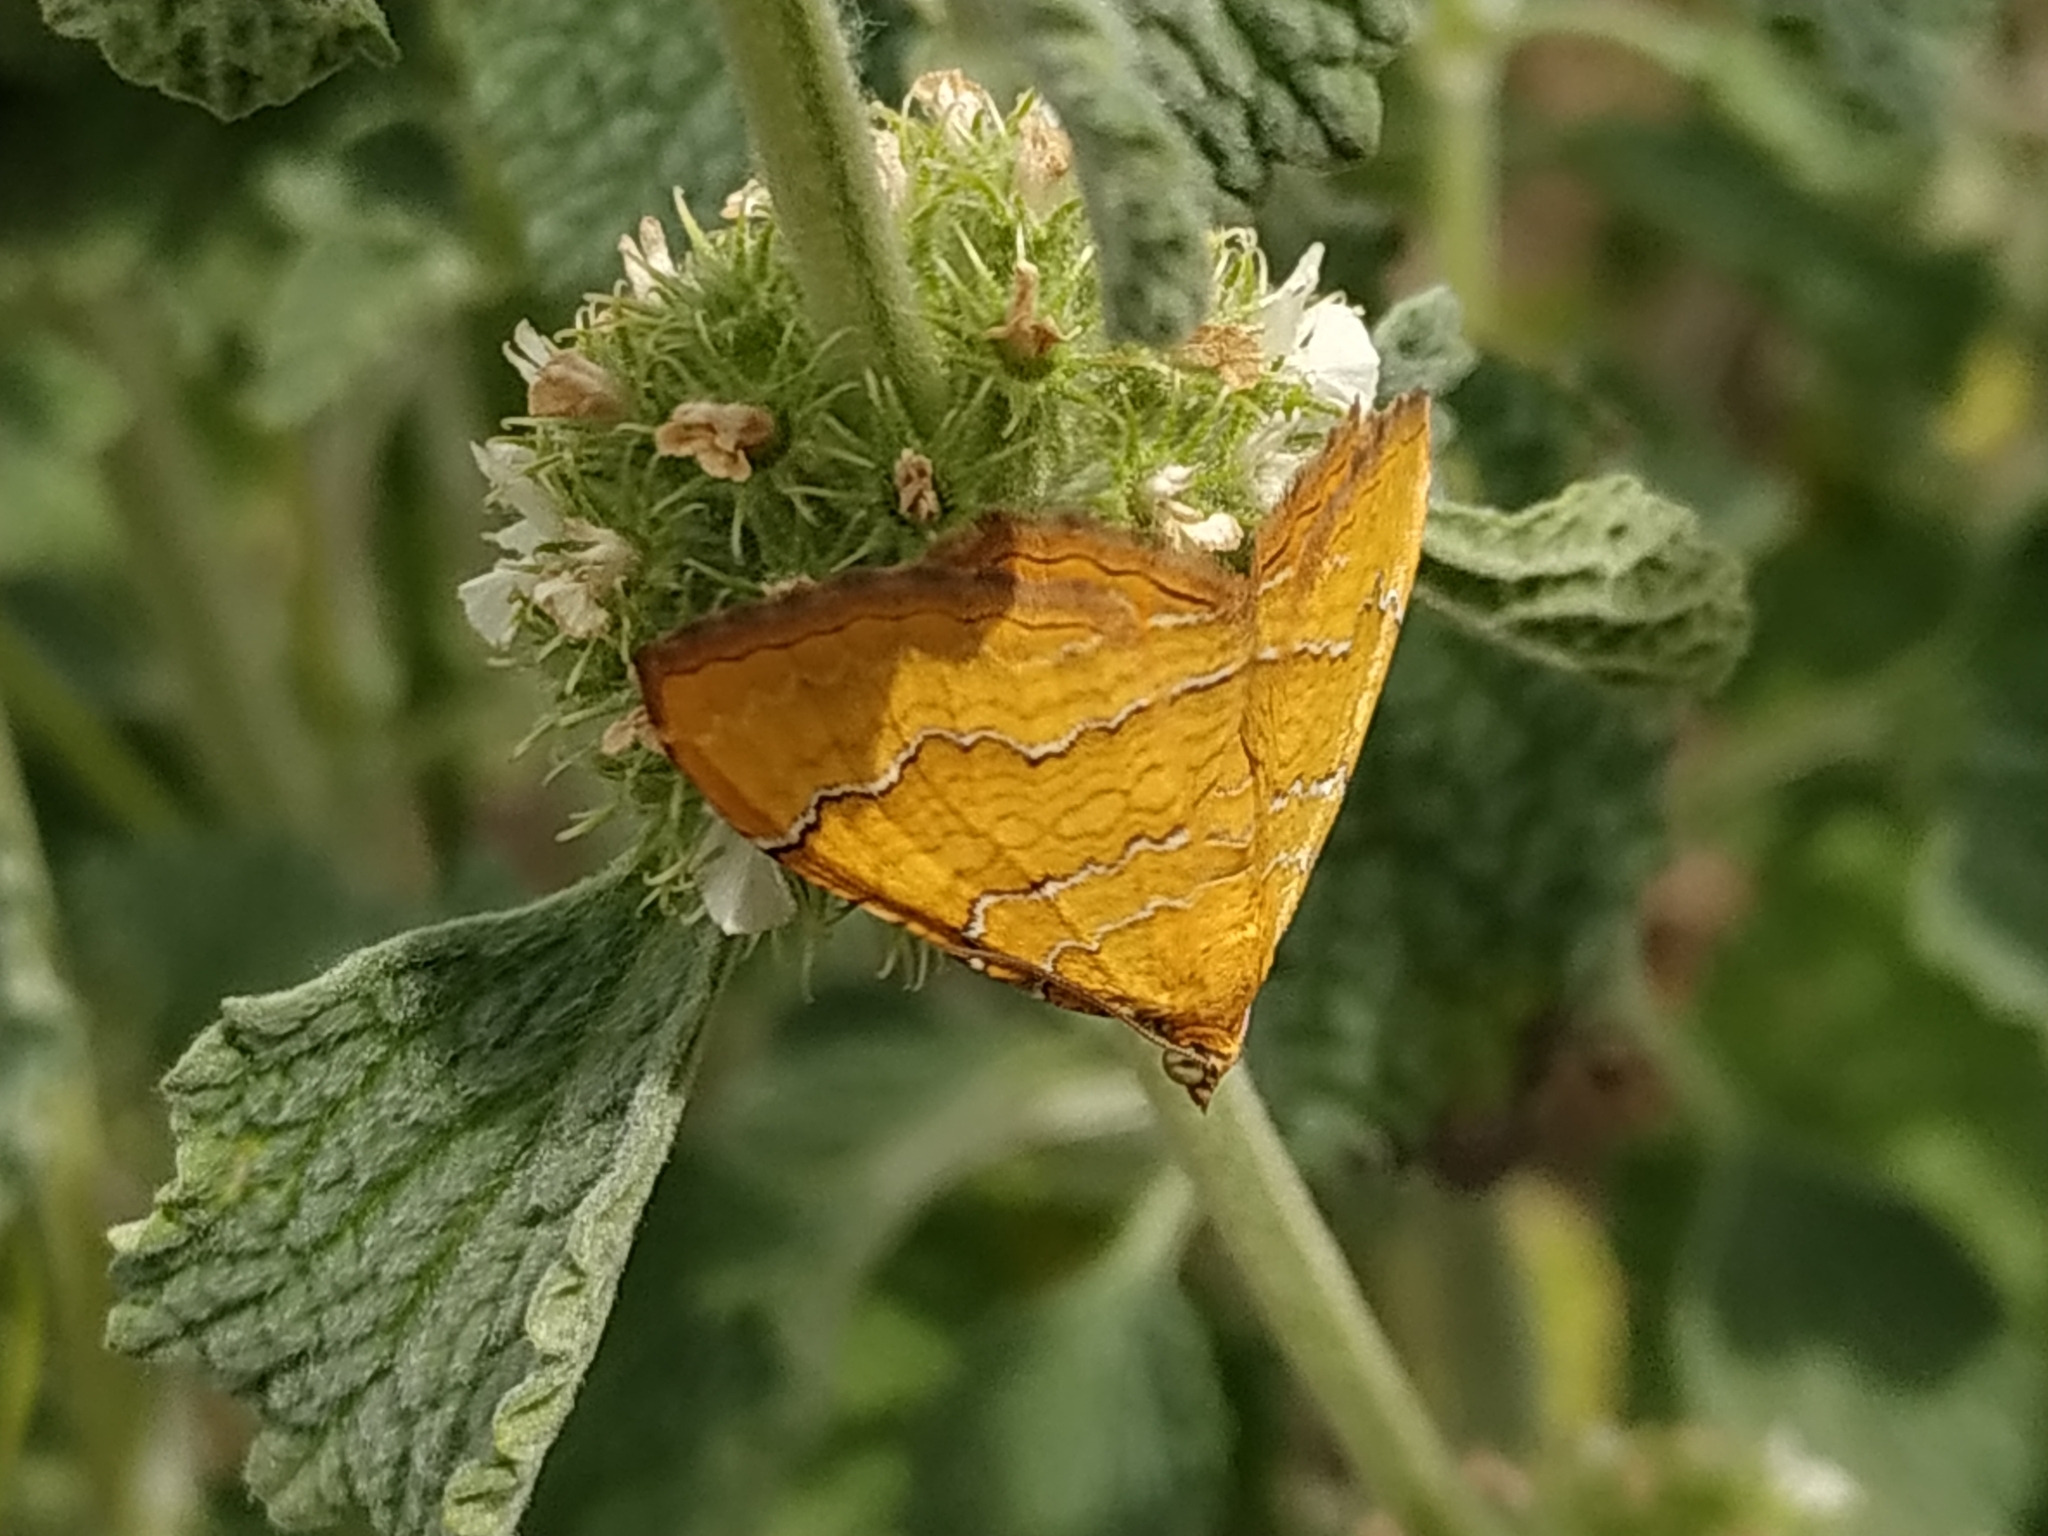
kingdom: Animalia
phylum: Arthropoda
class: Insecta
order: Lepidoptera
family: Geometridae
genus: Camptogramma
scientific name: Camptogramma bilineata
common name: Yellow shell
